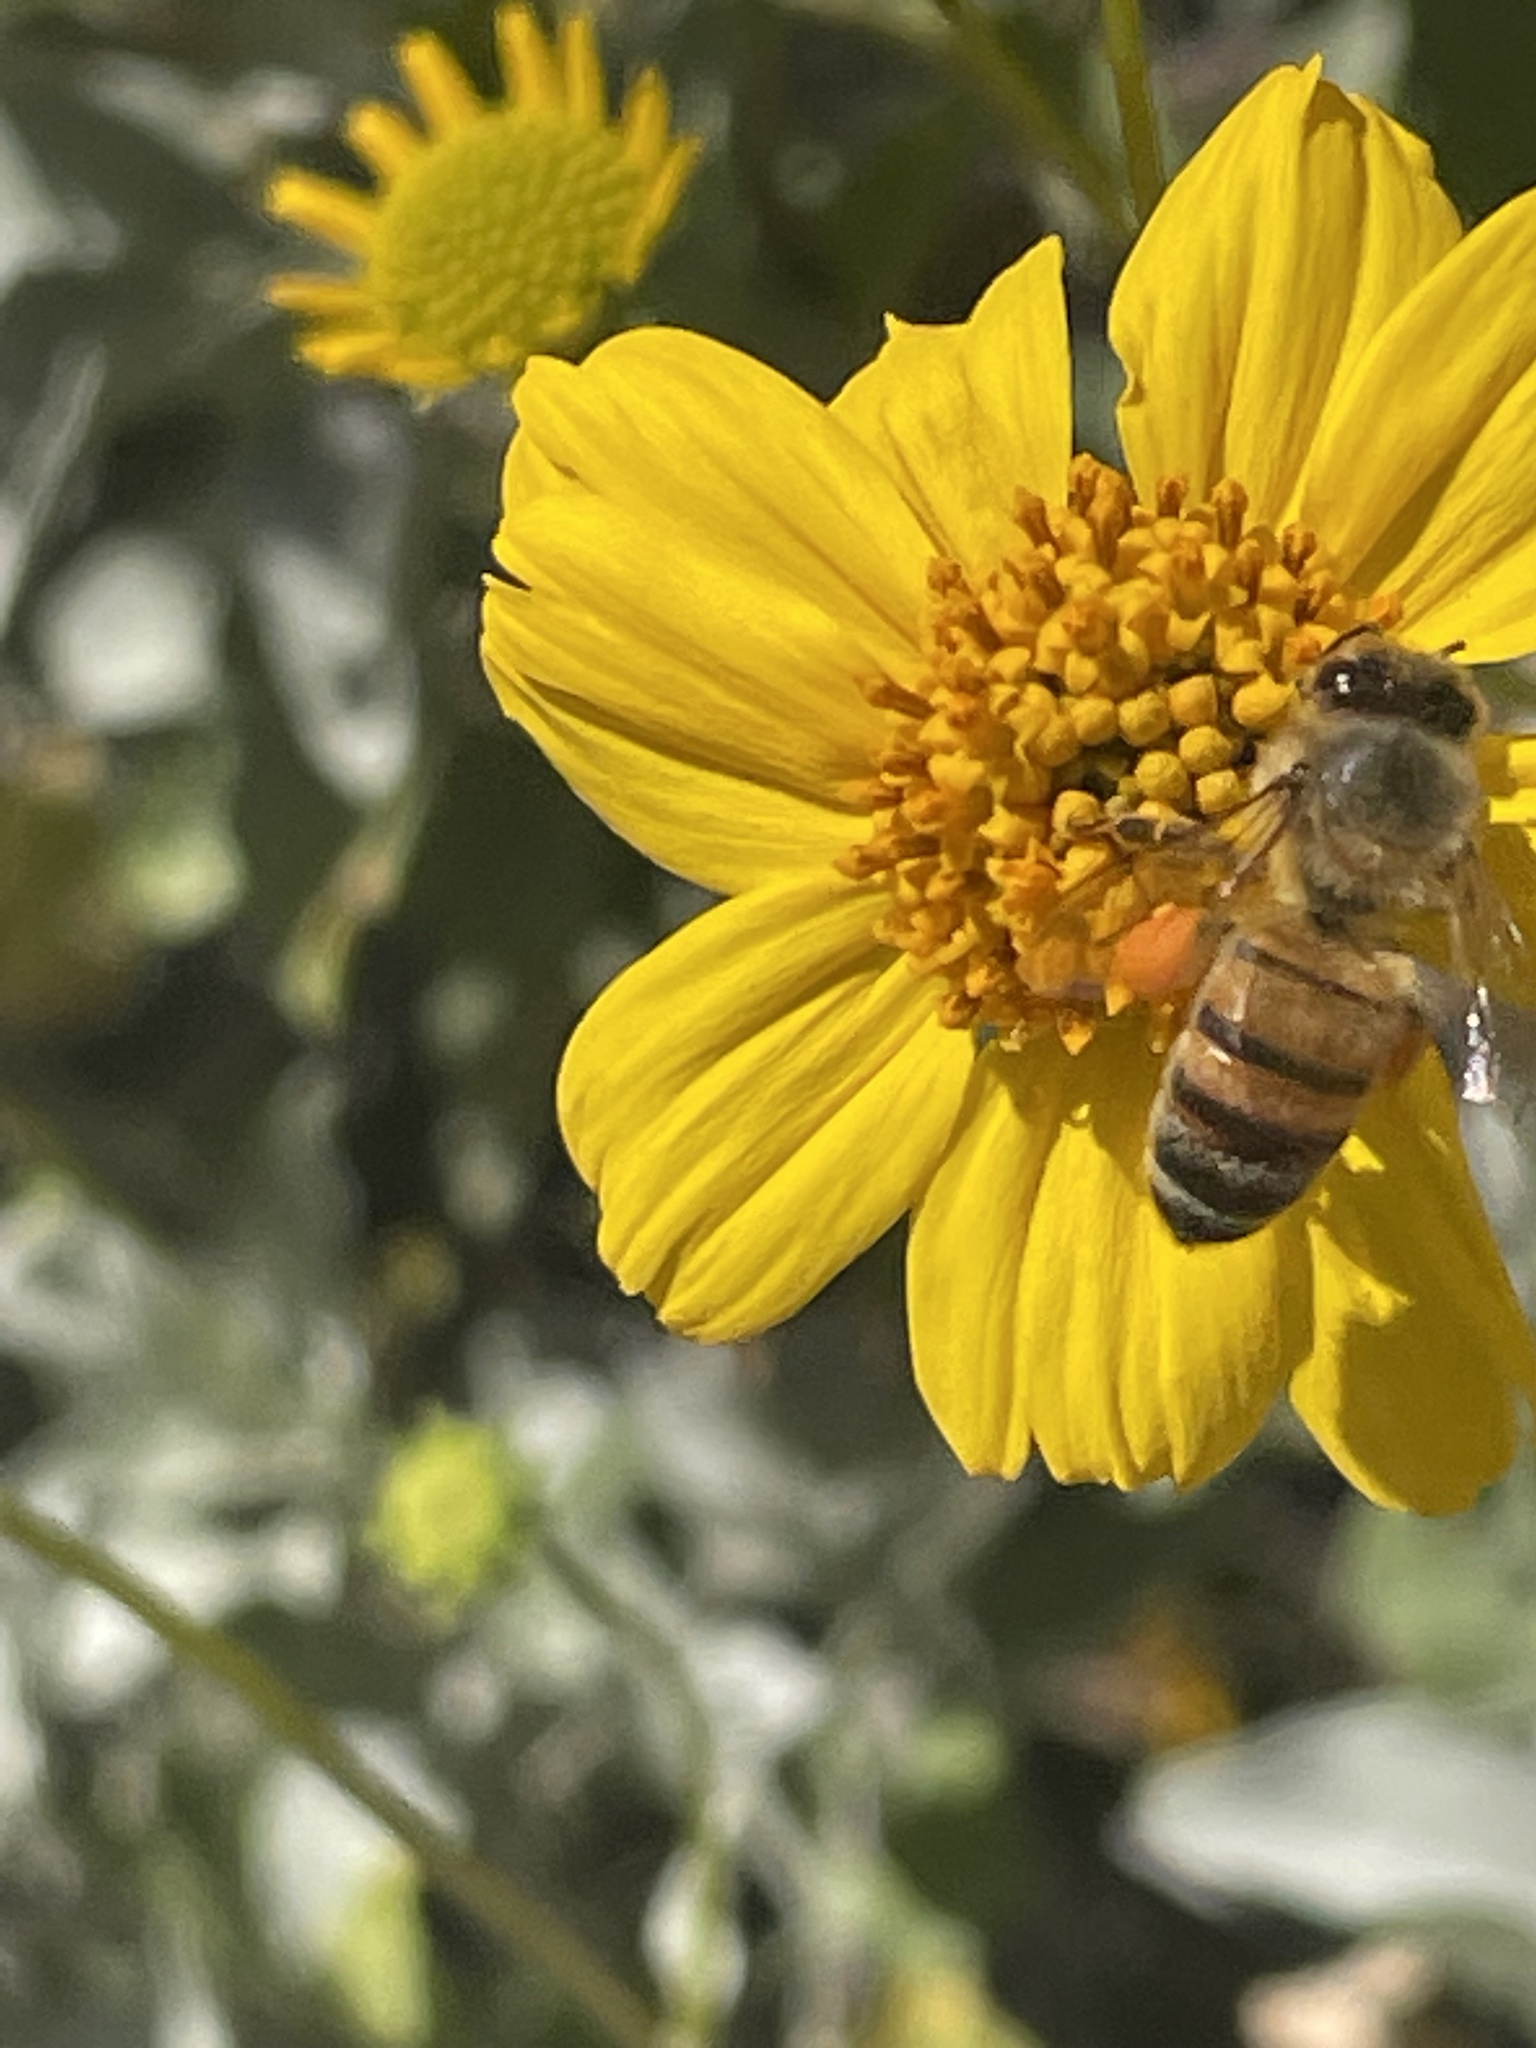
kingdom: Animalia
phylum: Arthropoda
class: Insecta
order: Hymenoptera
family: Apidae
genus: Apis
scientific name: Apis mellifera
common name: Honey bee
